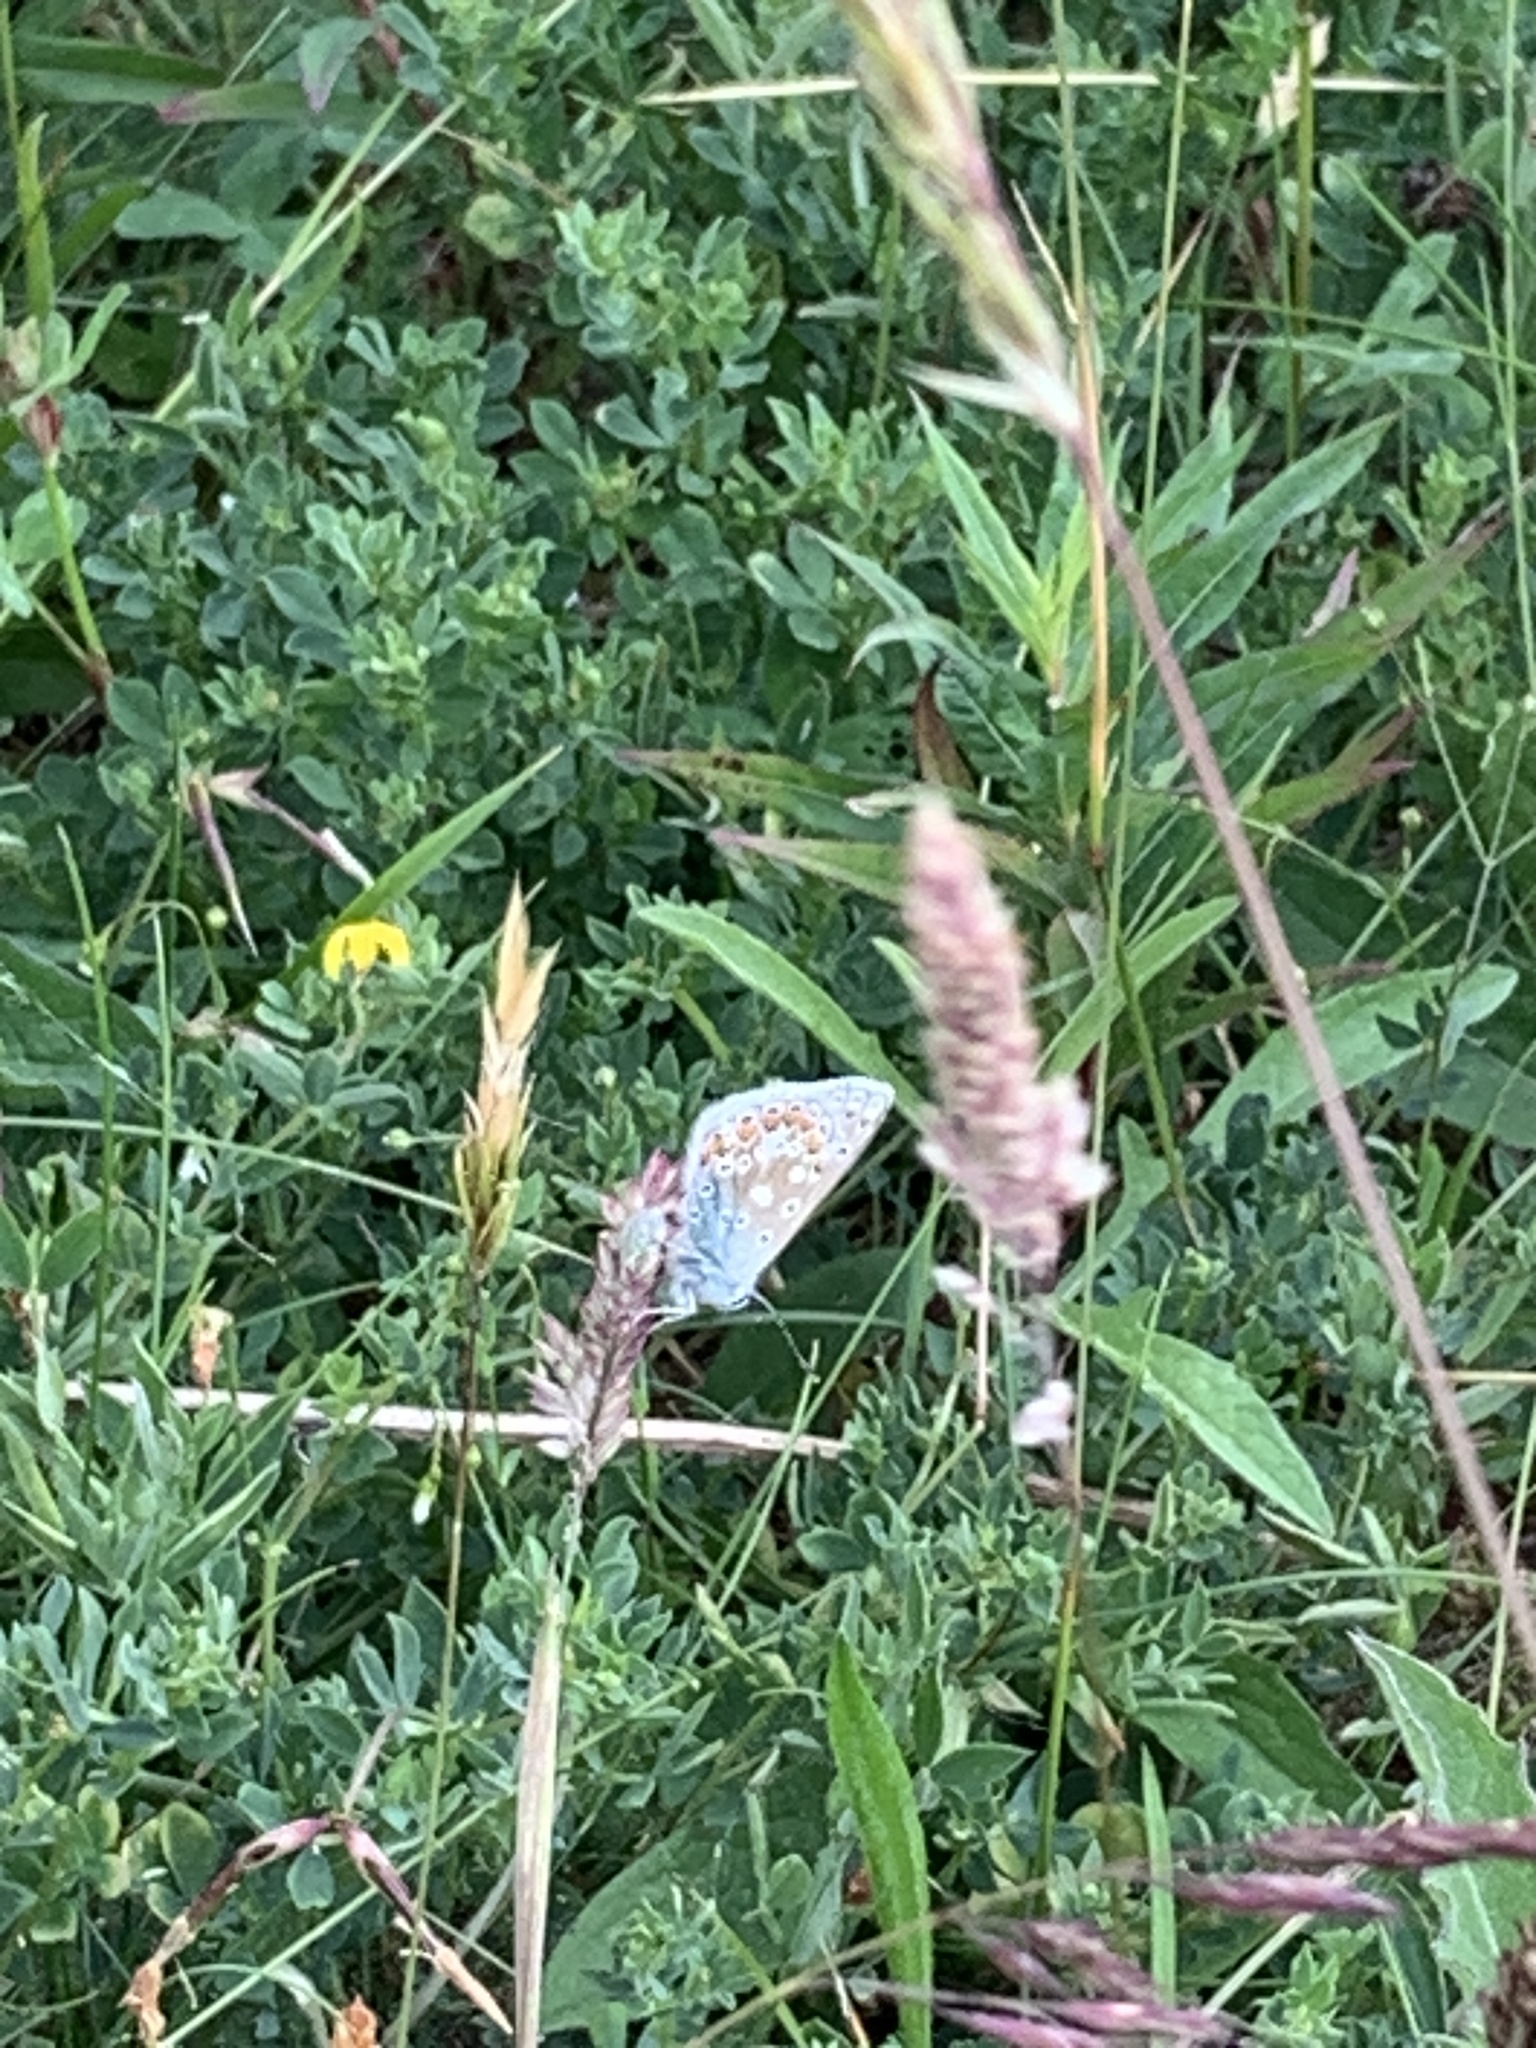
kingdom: Animalia
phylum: Arthropoda
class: Insecta
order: Lepidoptera
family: Lycaenidae
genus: Polyommatus
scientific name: Polyommatus icarus
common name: Common blue
